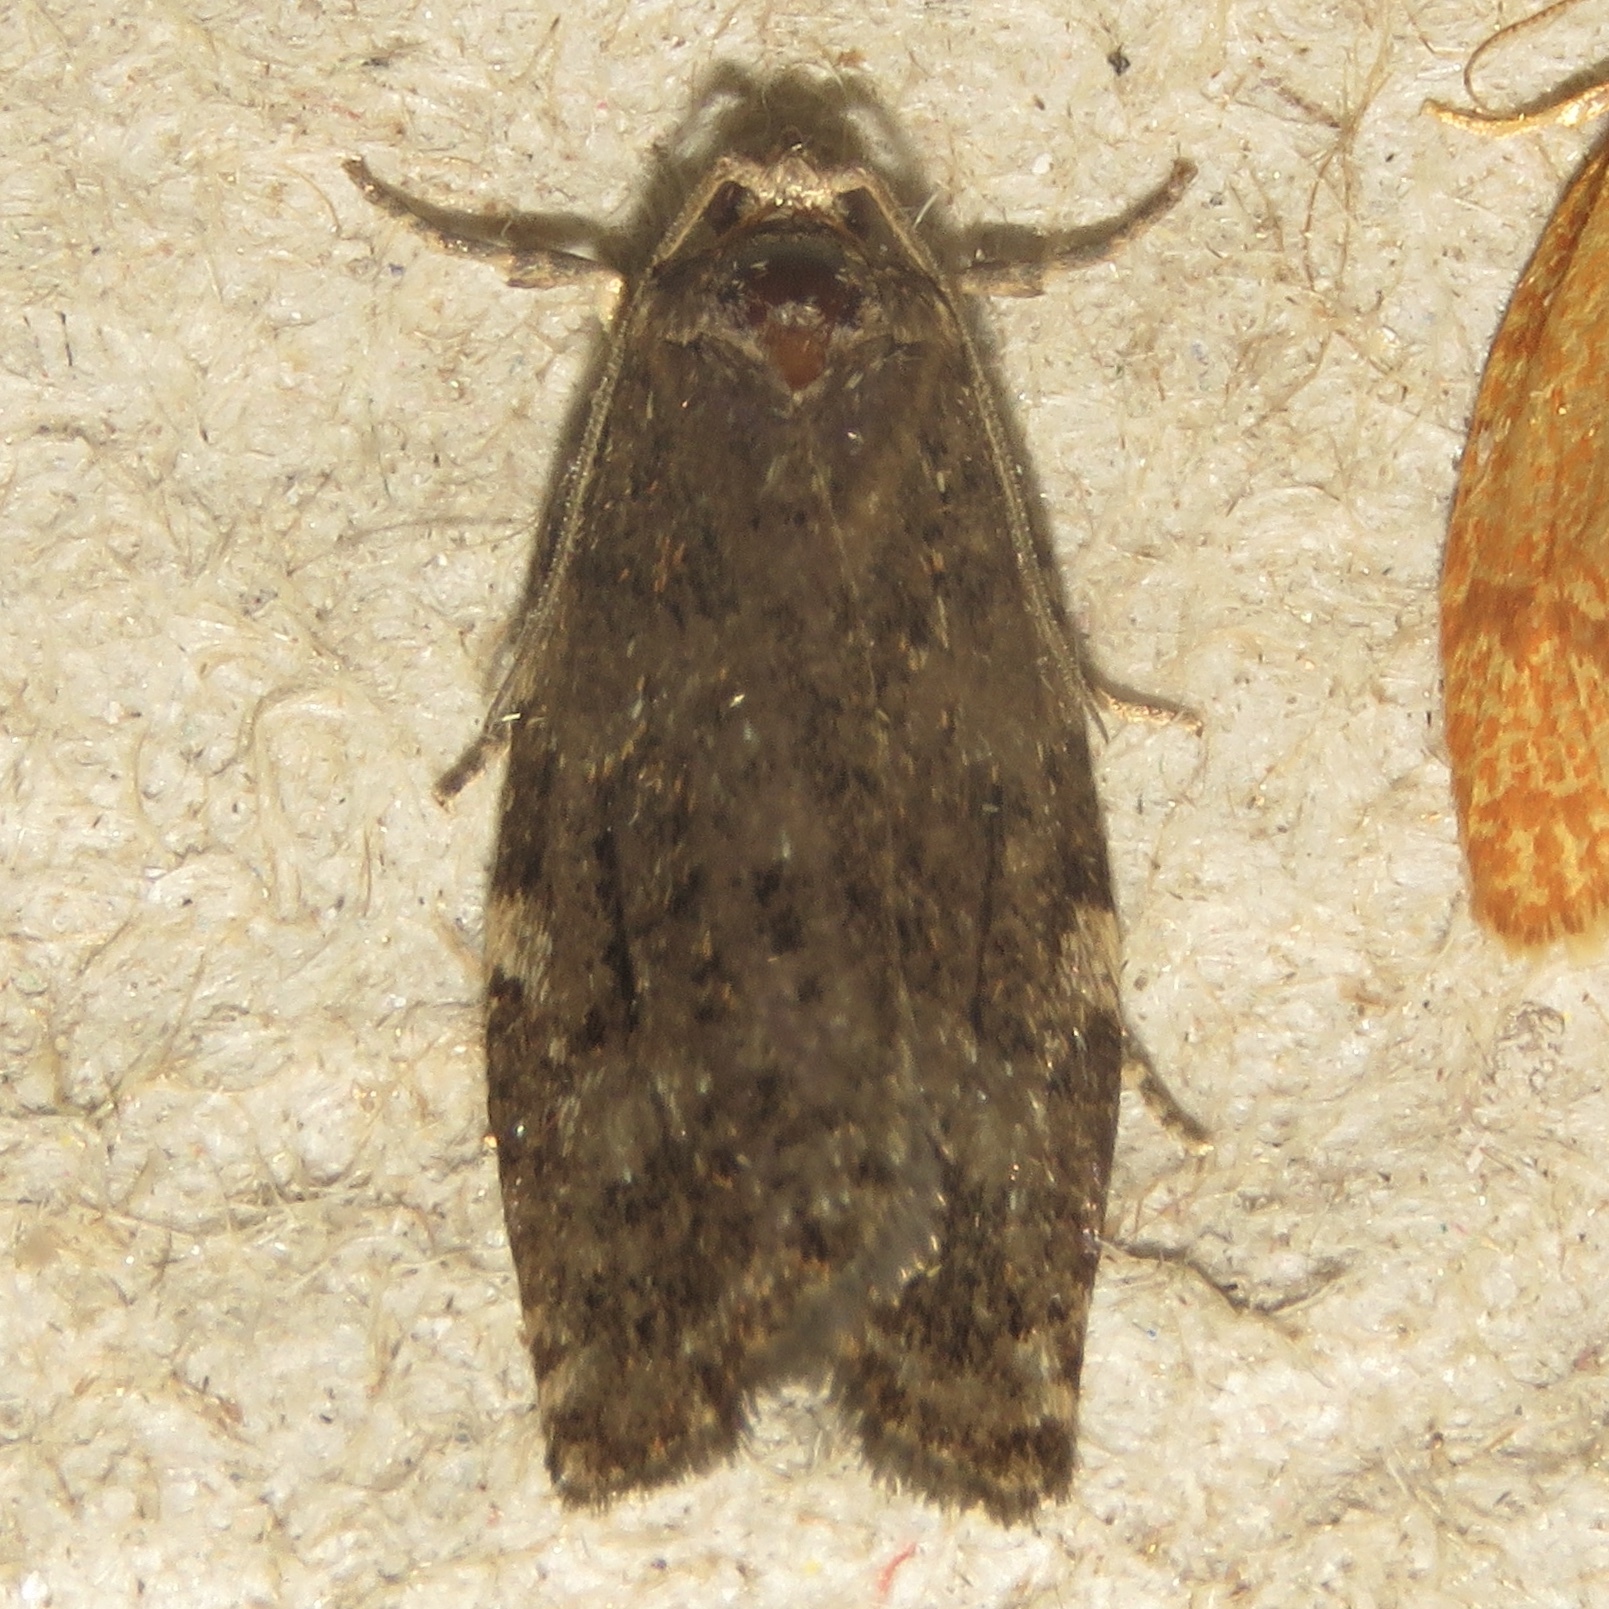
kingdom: Animalia
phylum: Arthropoda
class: Insecta
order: Lepidoptera
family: Tortricidae
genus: Choristoneura
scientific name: Choristoneura fumiferana
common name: Spruce budworm
